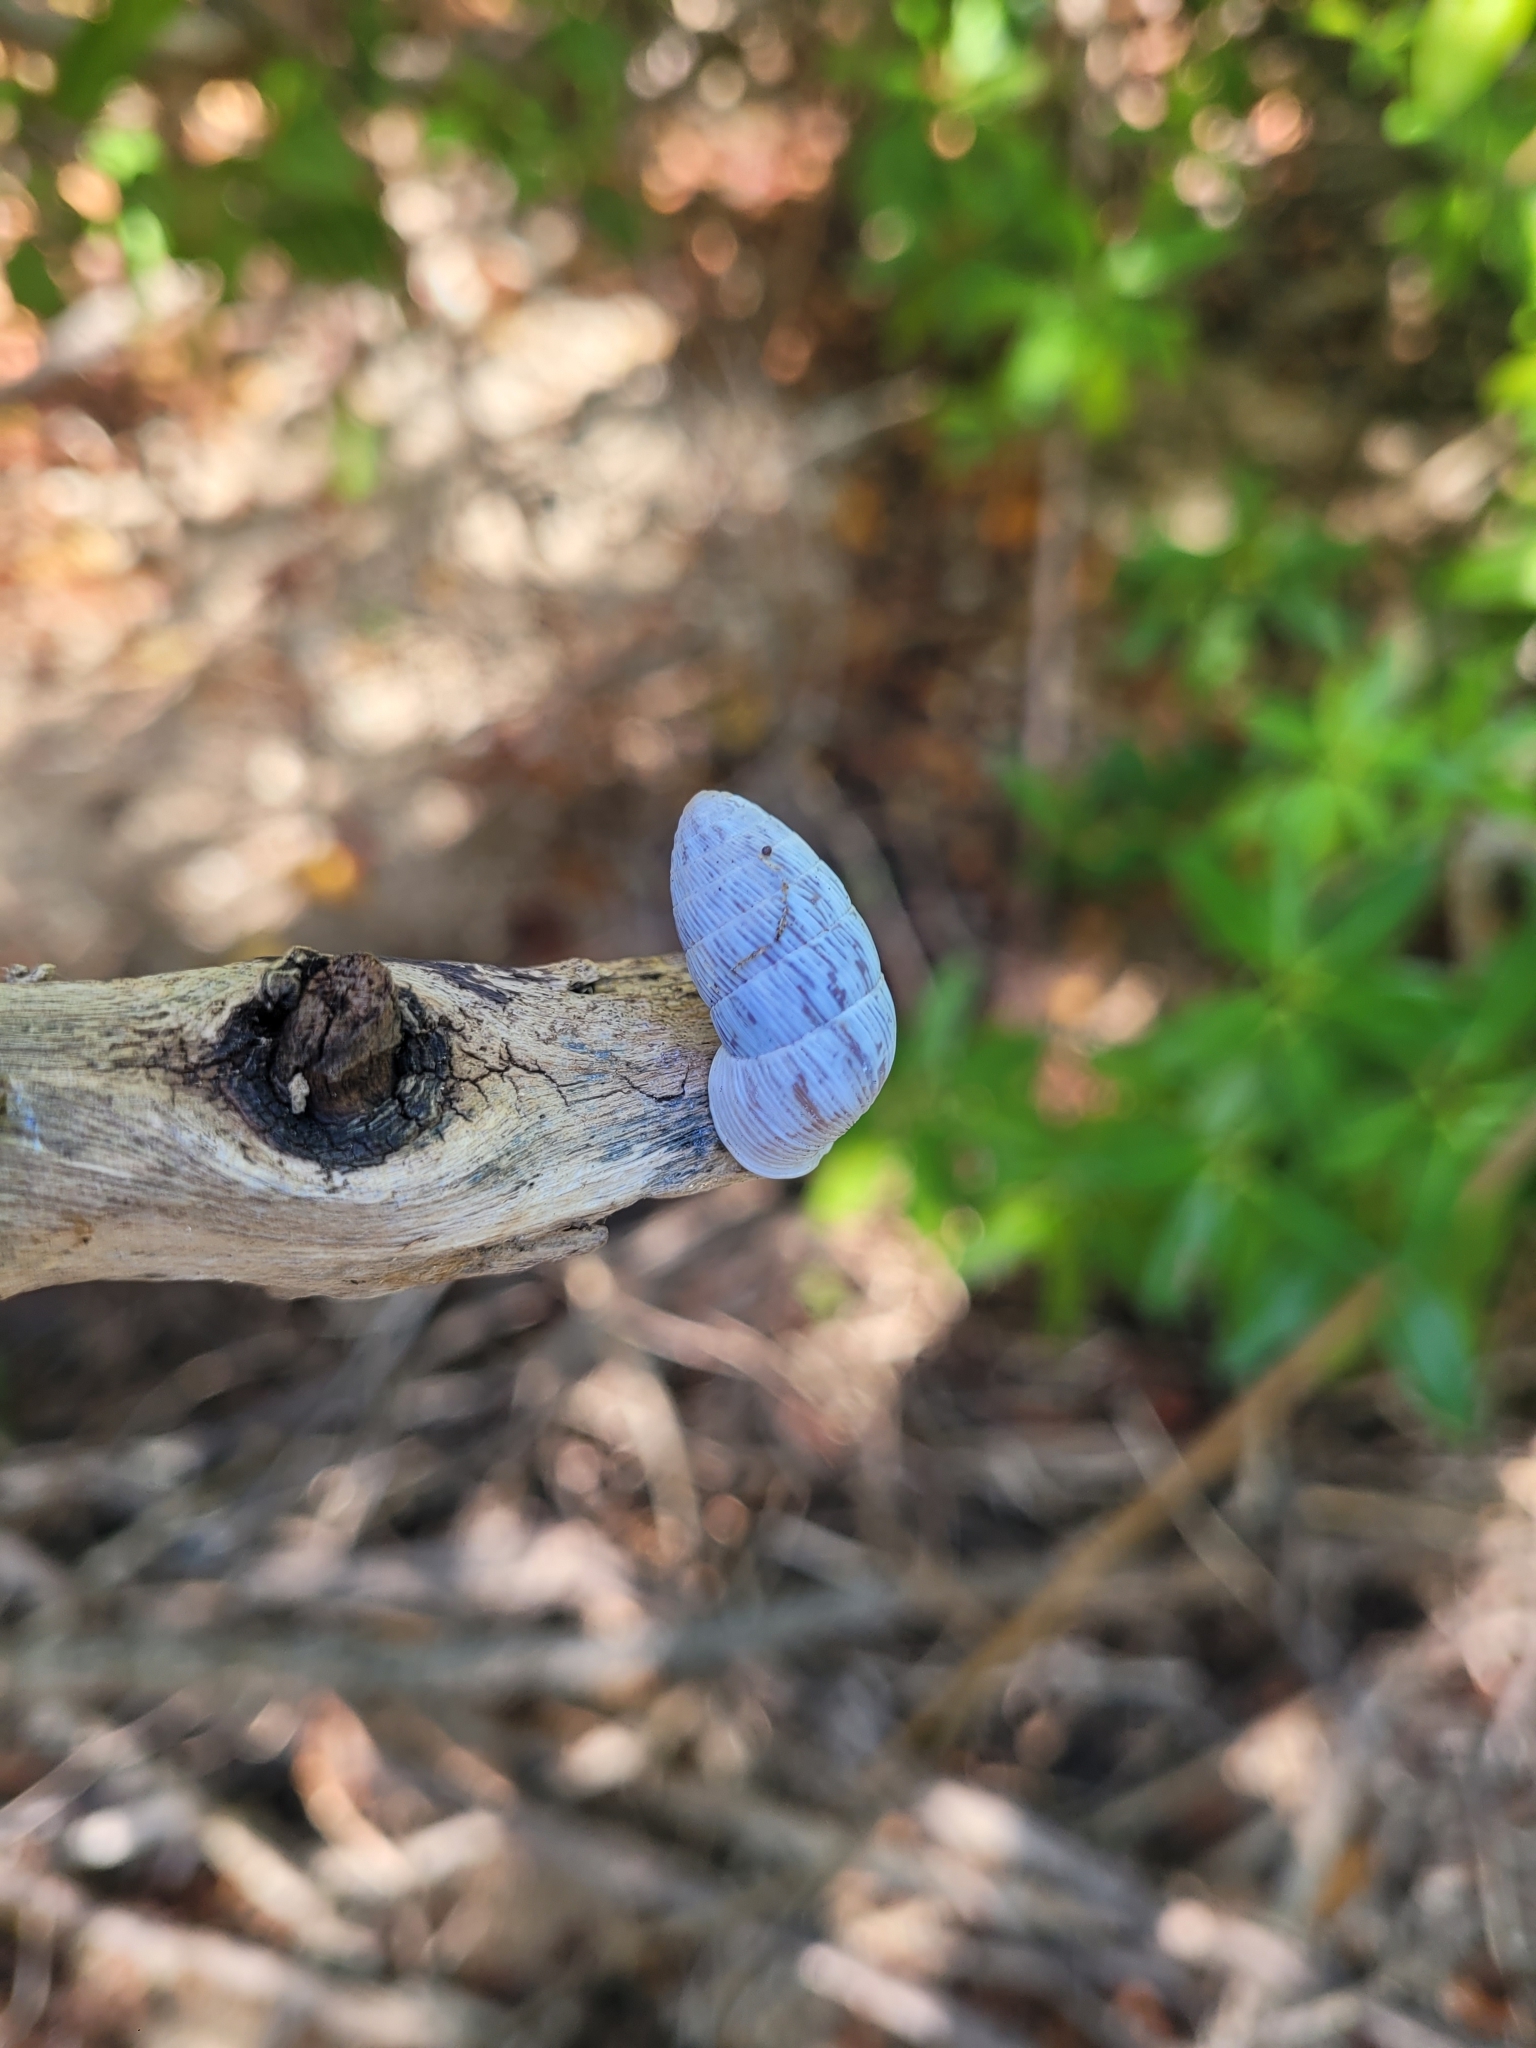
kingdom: Animalia
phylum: Mollusca
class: Gastropoda
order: Stylommatophora
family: Cerionidae
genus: Cerion
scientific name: Cerion striatellum
